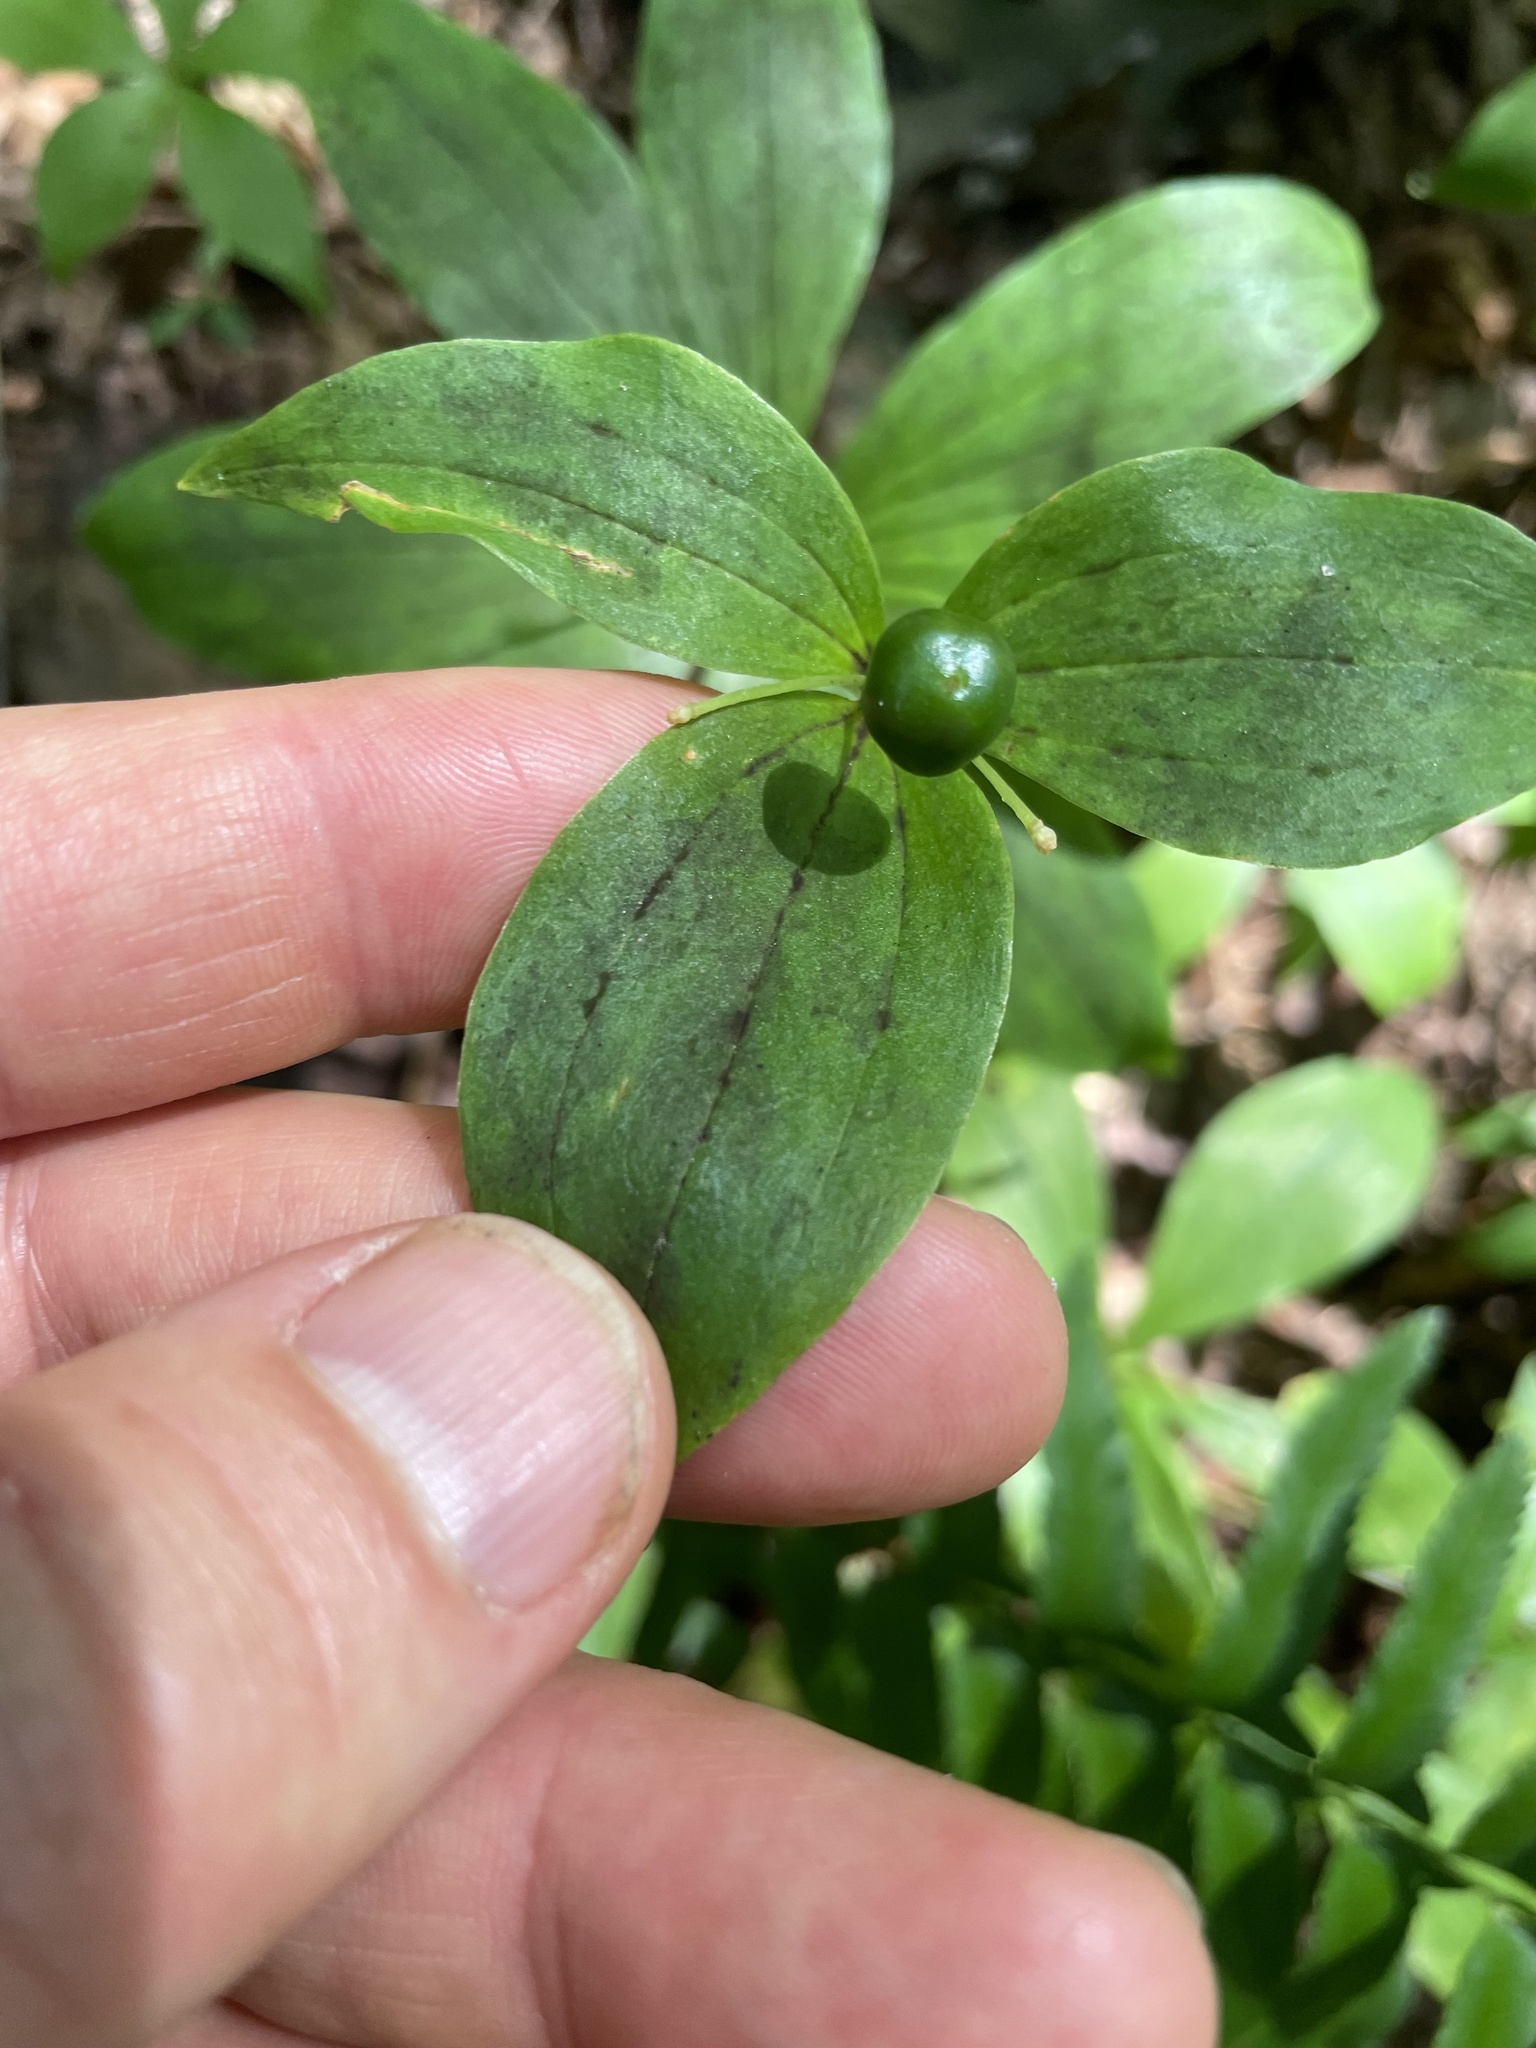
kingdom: Plantae
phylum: Tracheophyta
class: Liliopsida
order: Liliales
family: Liliaceae
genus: Medeola
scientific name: Medeola virginiana
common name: Indian cucumber-root
